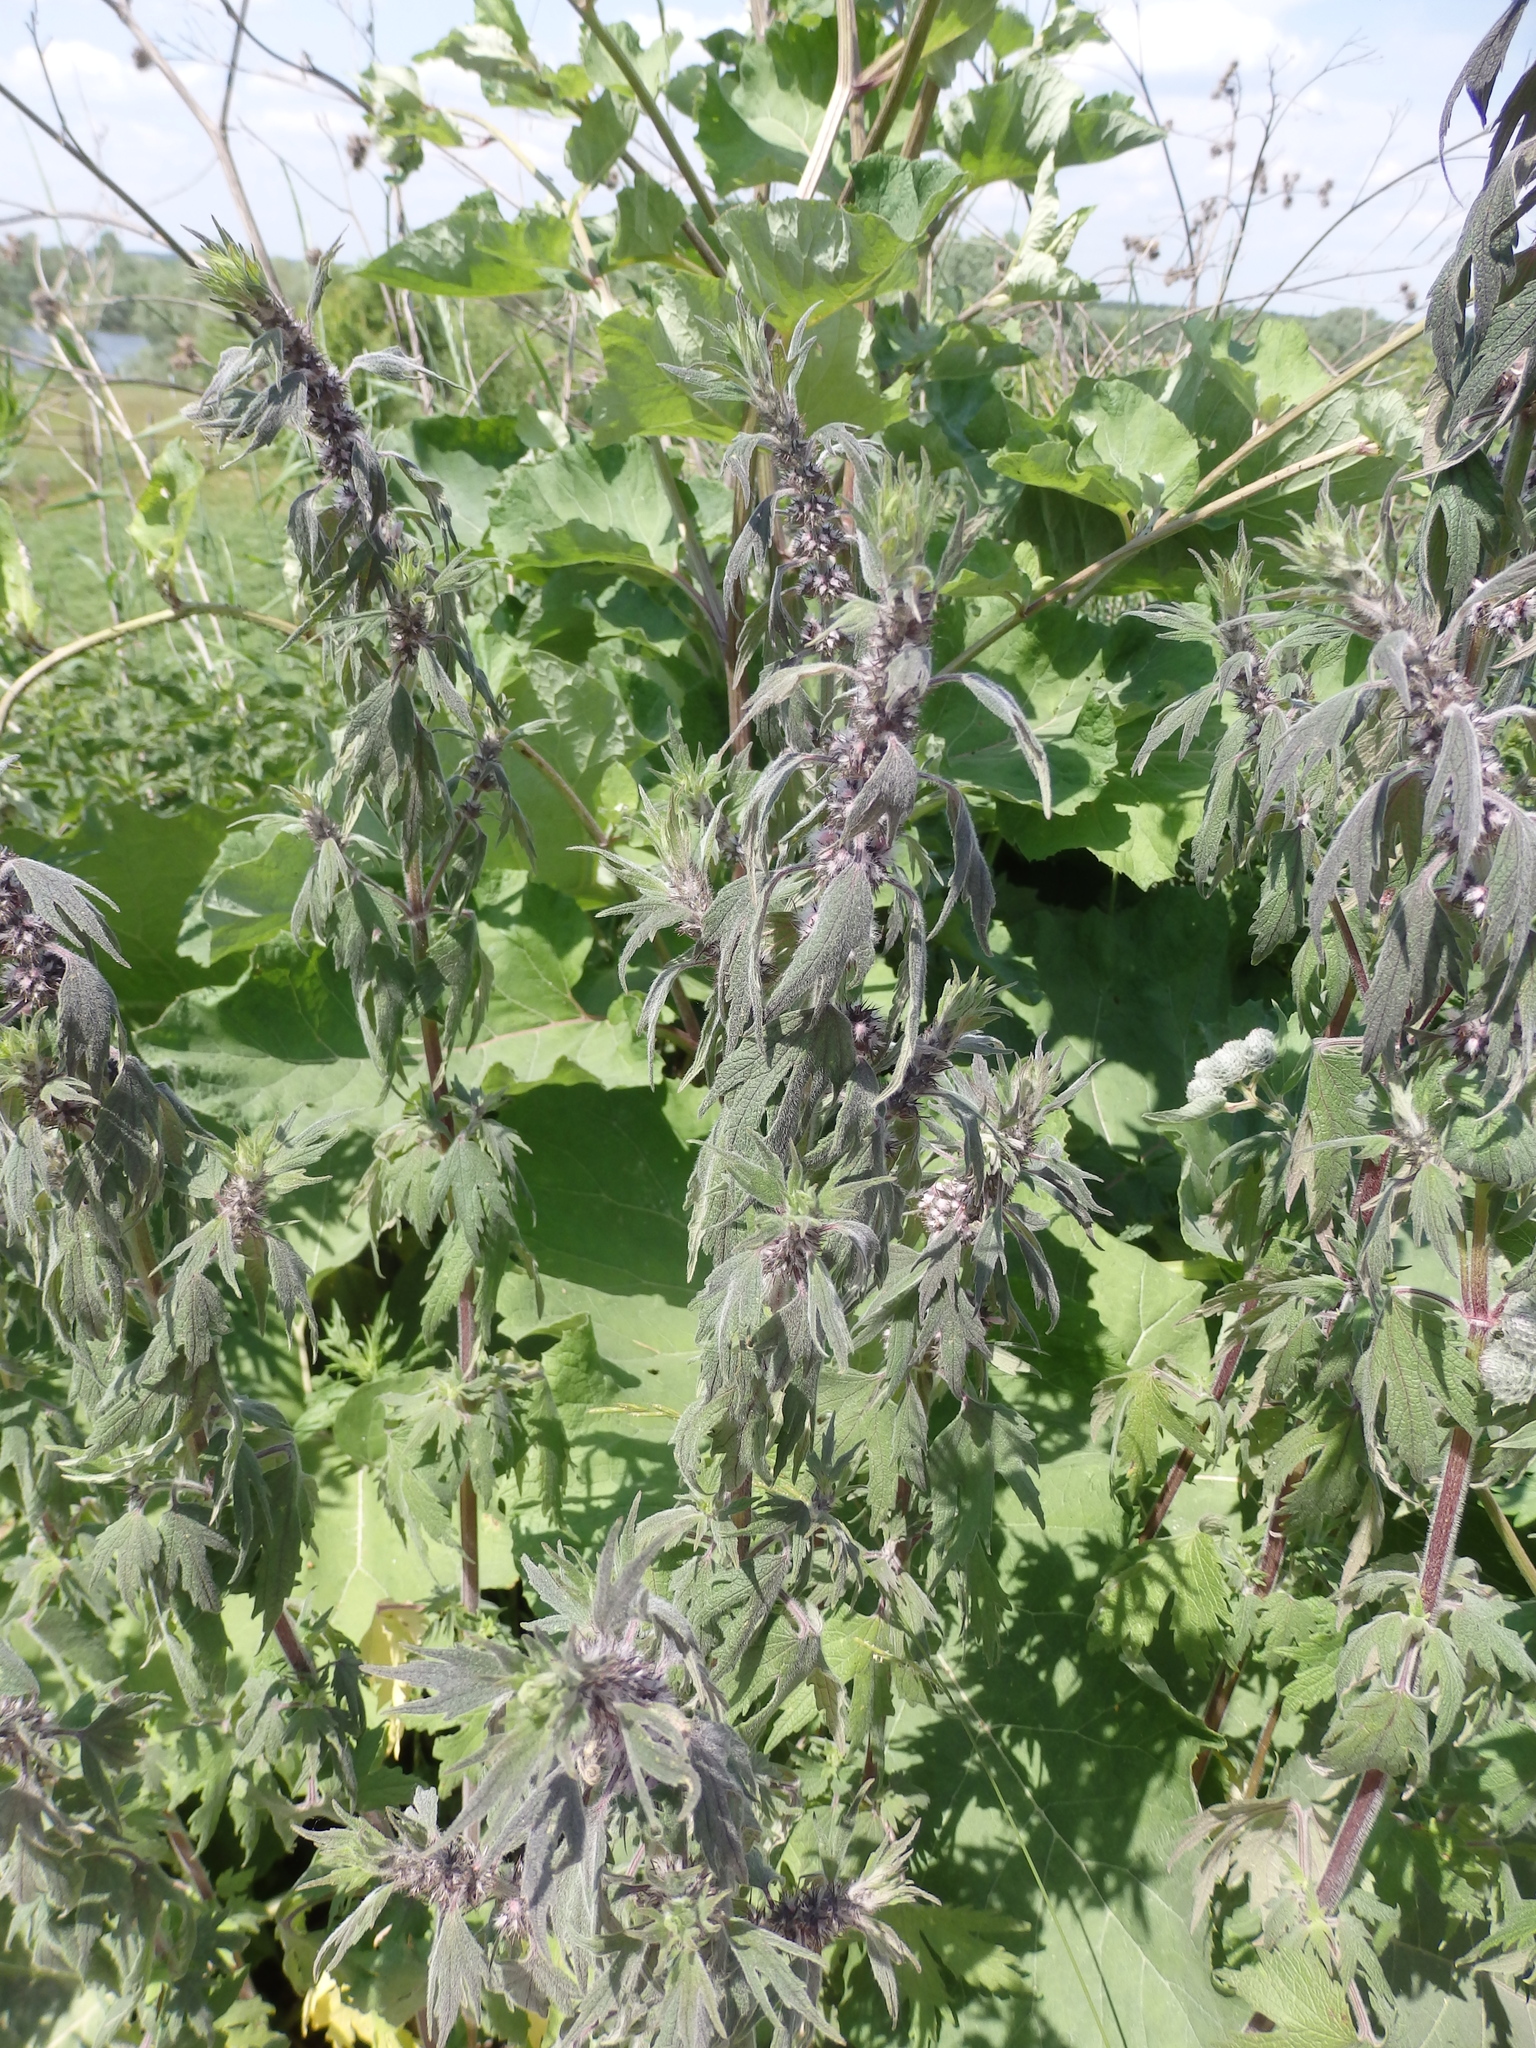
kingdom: Plantae
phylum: Tracheophyta
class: Magnoliopsida
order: Lamiales
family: Lamiaceae
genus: Leonurus
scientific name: Leonurus quinquelobatus
